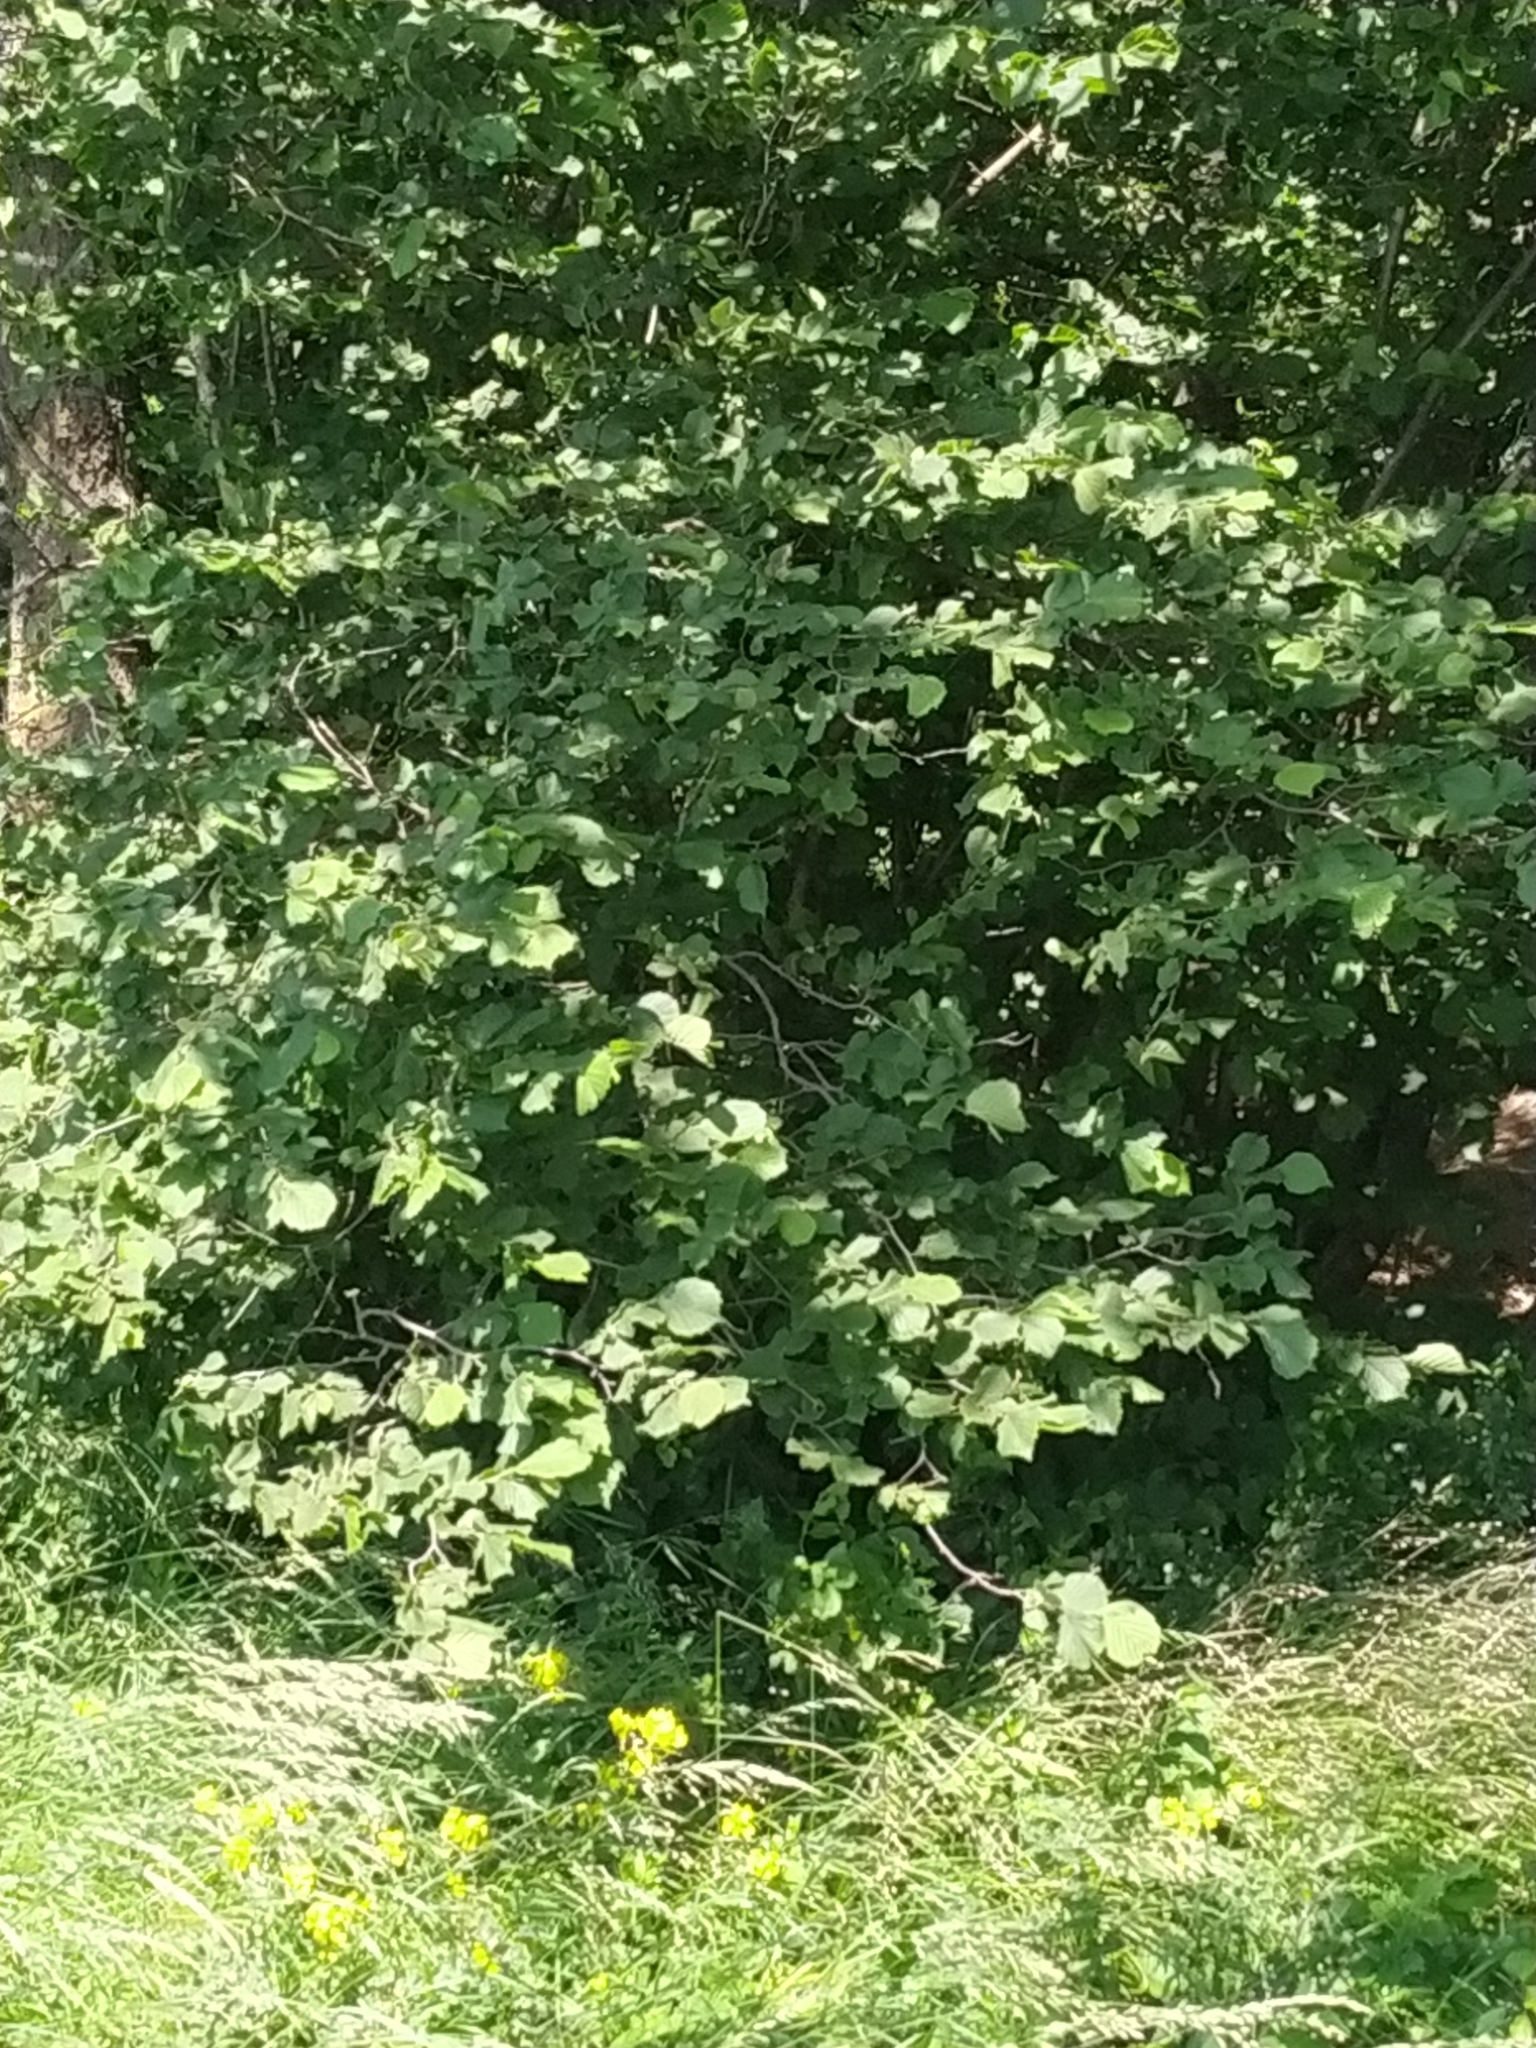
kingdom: Plantae
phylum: Tracheophyta
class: Magnoliopsida
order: Fagales
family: Betulaceae
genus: Corylus
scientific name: Corylus avellana
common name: European hazel
